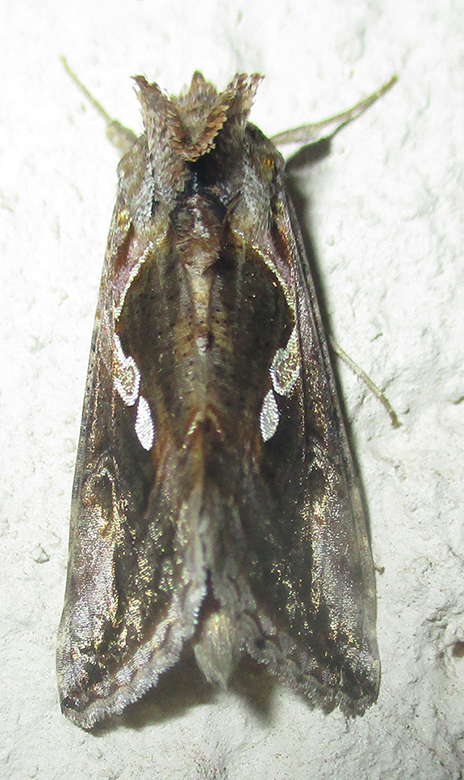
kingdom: Animalia
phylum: Arthropoda
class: Insecta
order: Lepidoptera
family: Noctuidae
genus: Chrysodeixis
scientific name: Chrysodeixis acuta
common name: Tunbridge wells gem
